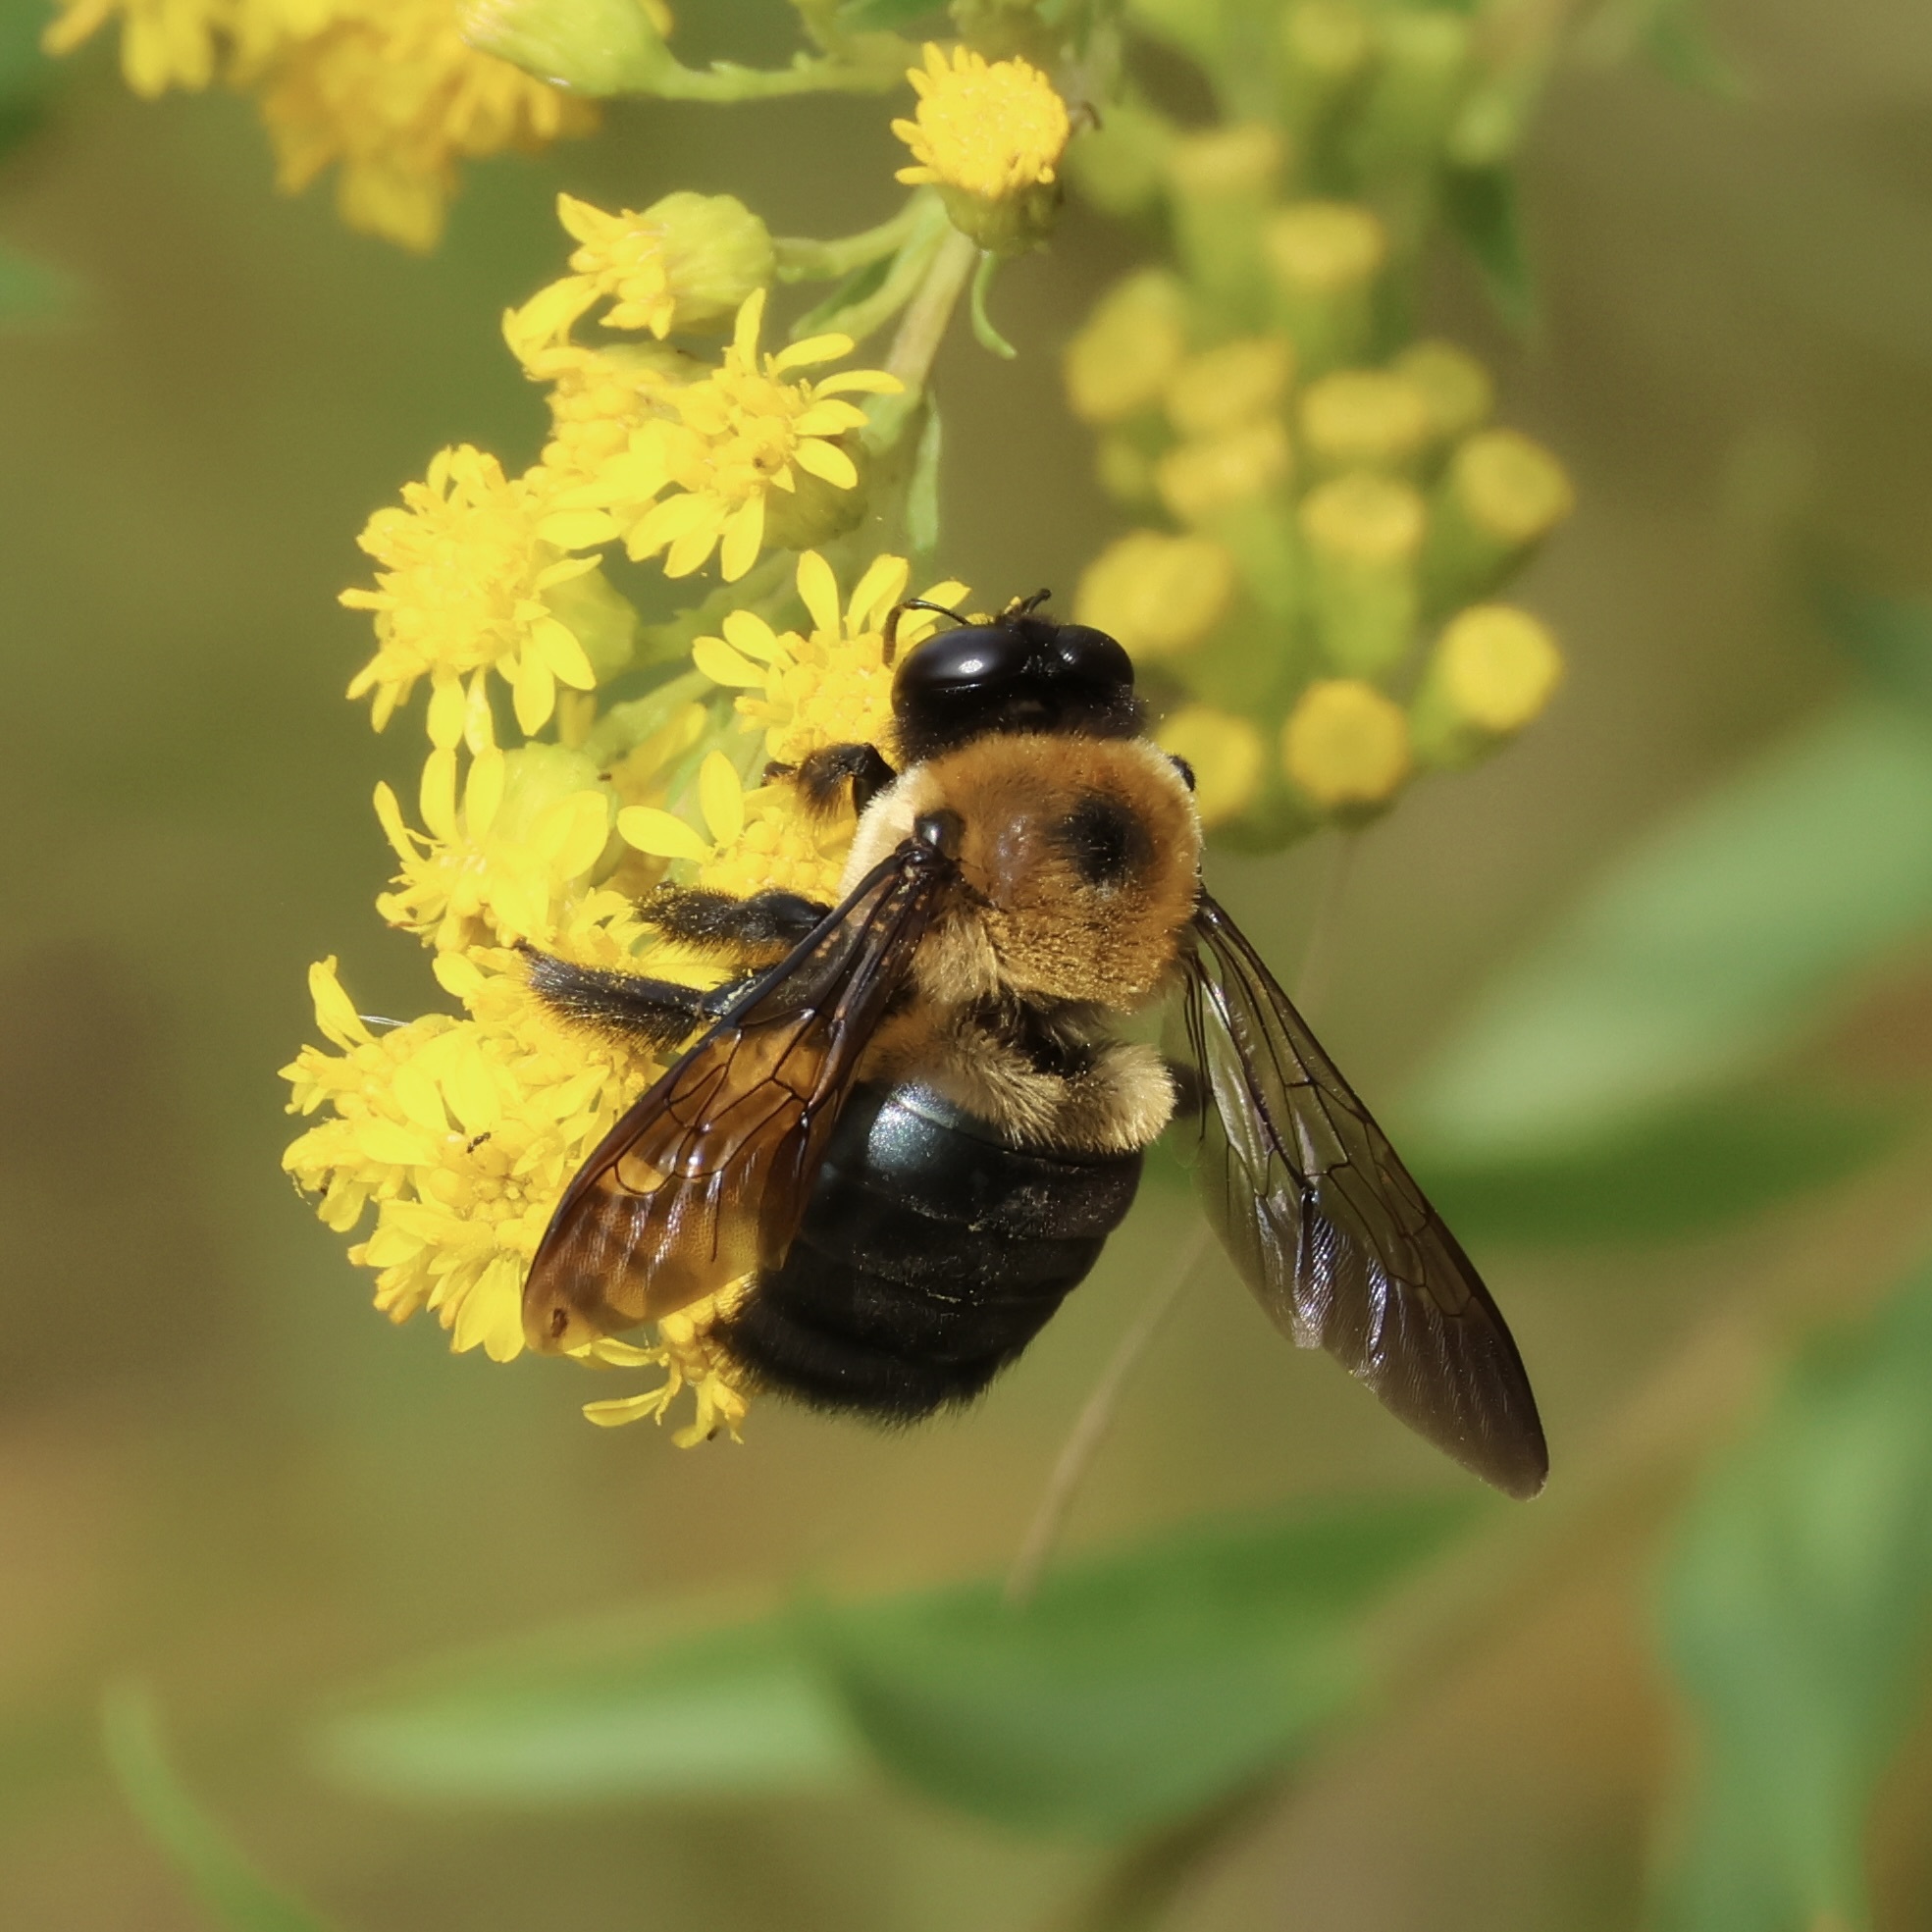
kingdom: Animalia
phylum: Arthropoda
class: Insecta
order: Hymenoptera
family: Apidae
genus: Xylocopa
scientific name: Xylocopa virginica
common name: Carpenter bee
